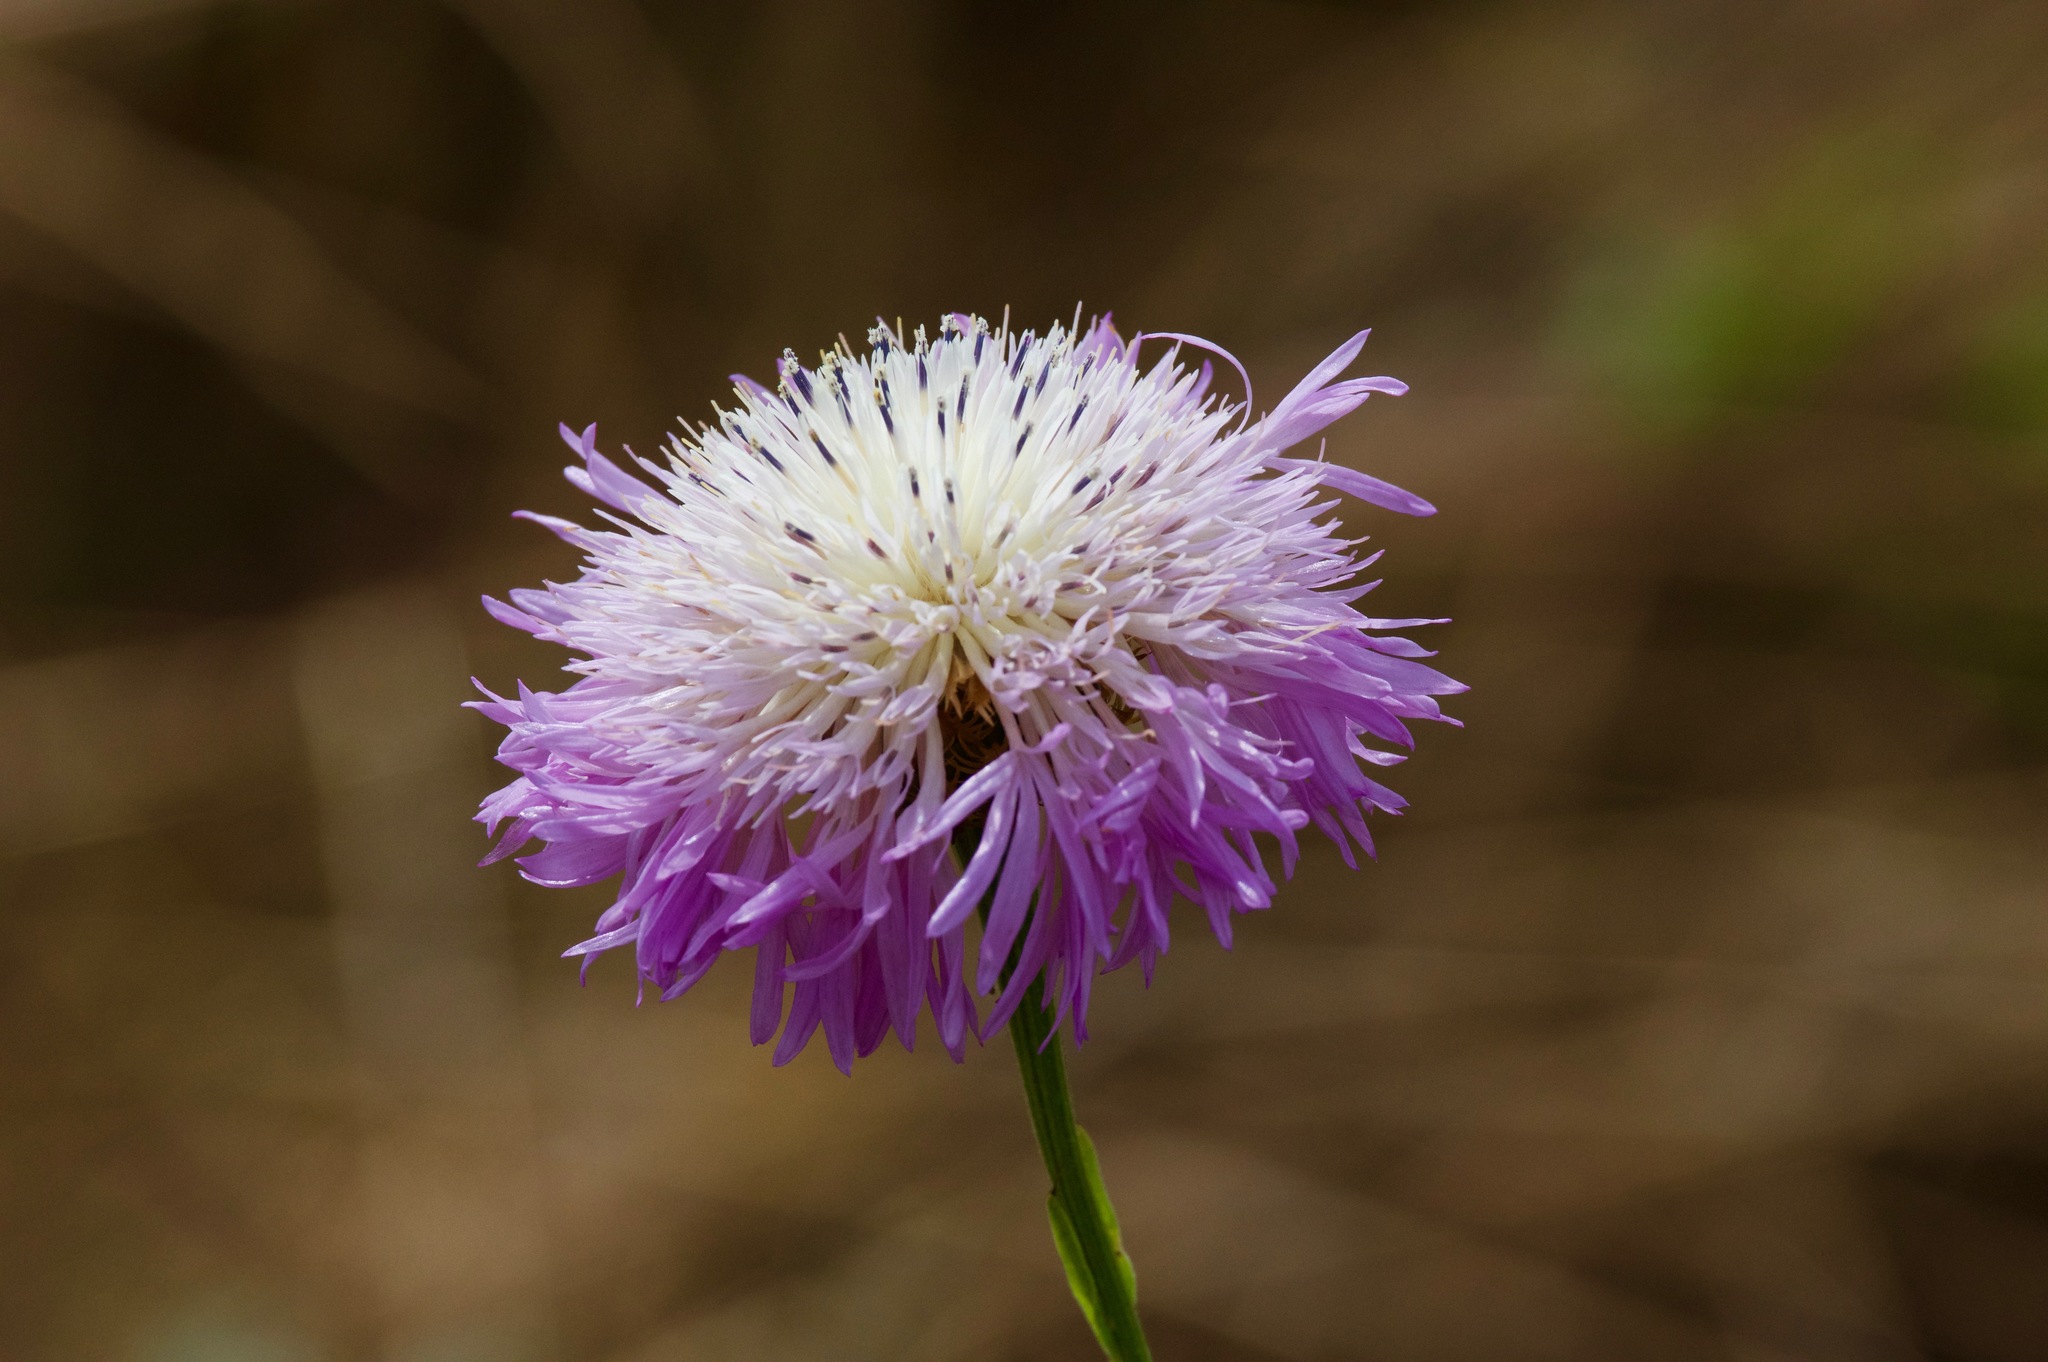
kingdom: Plantae
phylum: Tracheophyta
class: Magnoliopsida
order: Asterales
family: Asteraceae
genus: Plectocephalus
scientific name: Plectocephalus americanus
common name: American basket-flower
